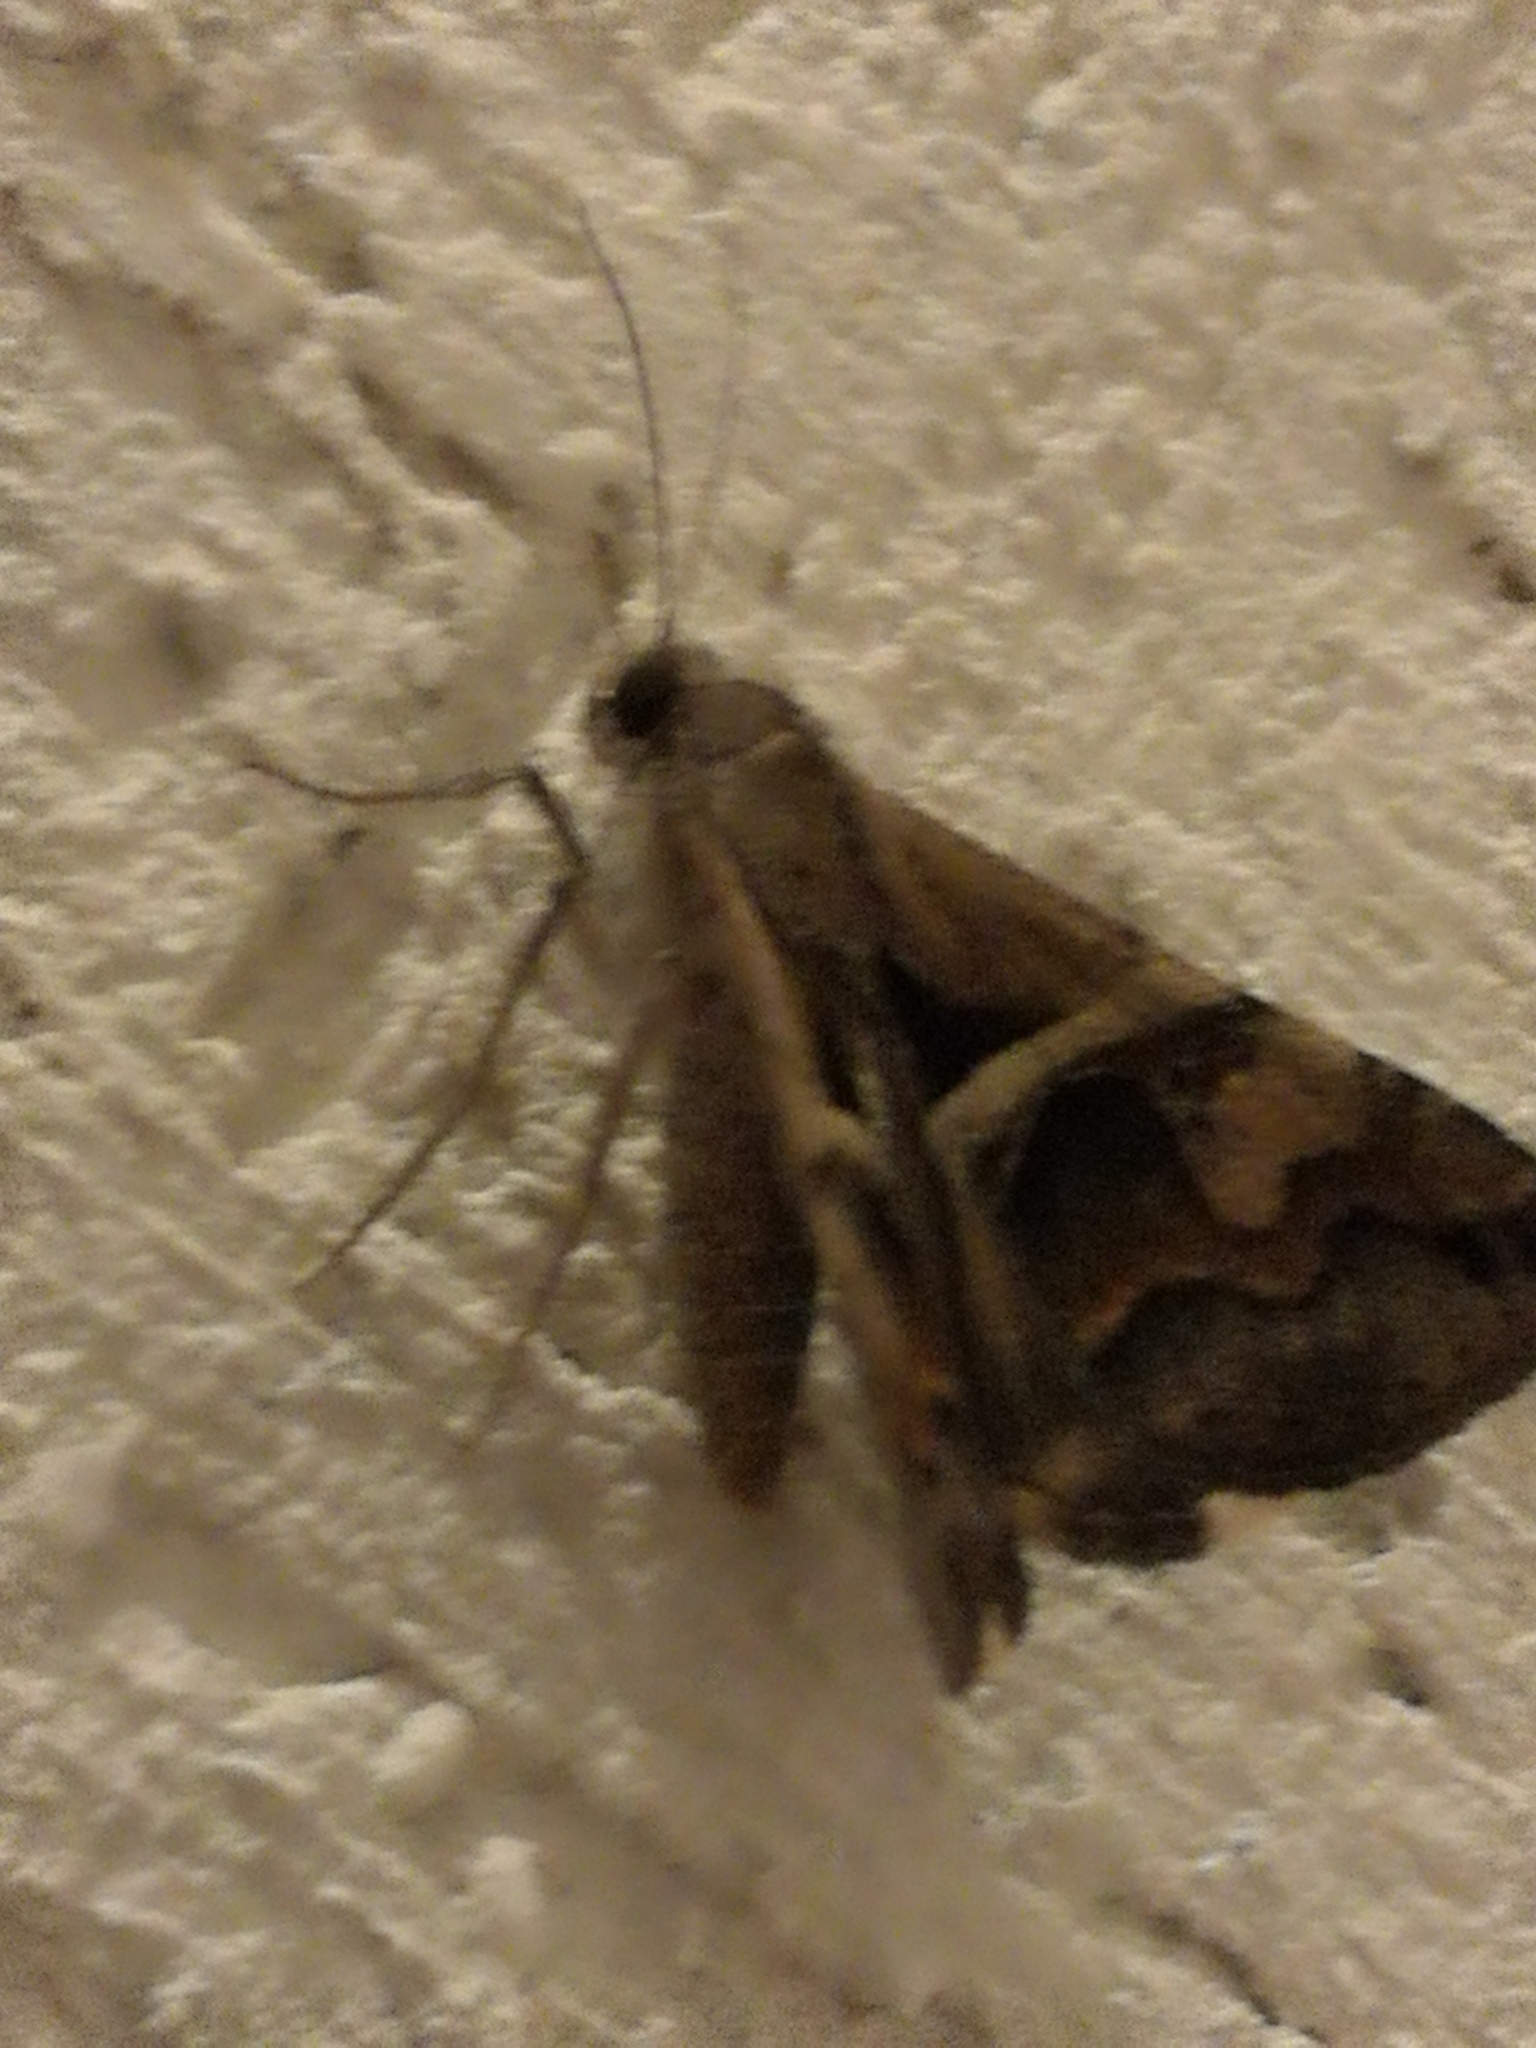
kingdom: Animalia
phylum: Arthropoda
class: Insecta
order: Lepidoptera
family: Erebidae
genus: Melipotis
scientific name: Melipotis cellaris
